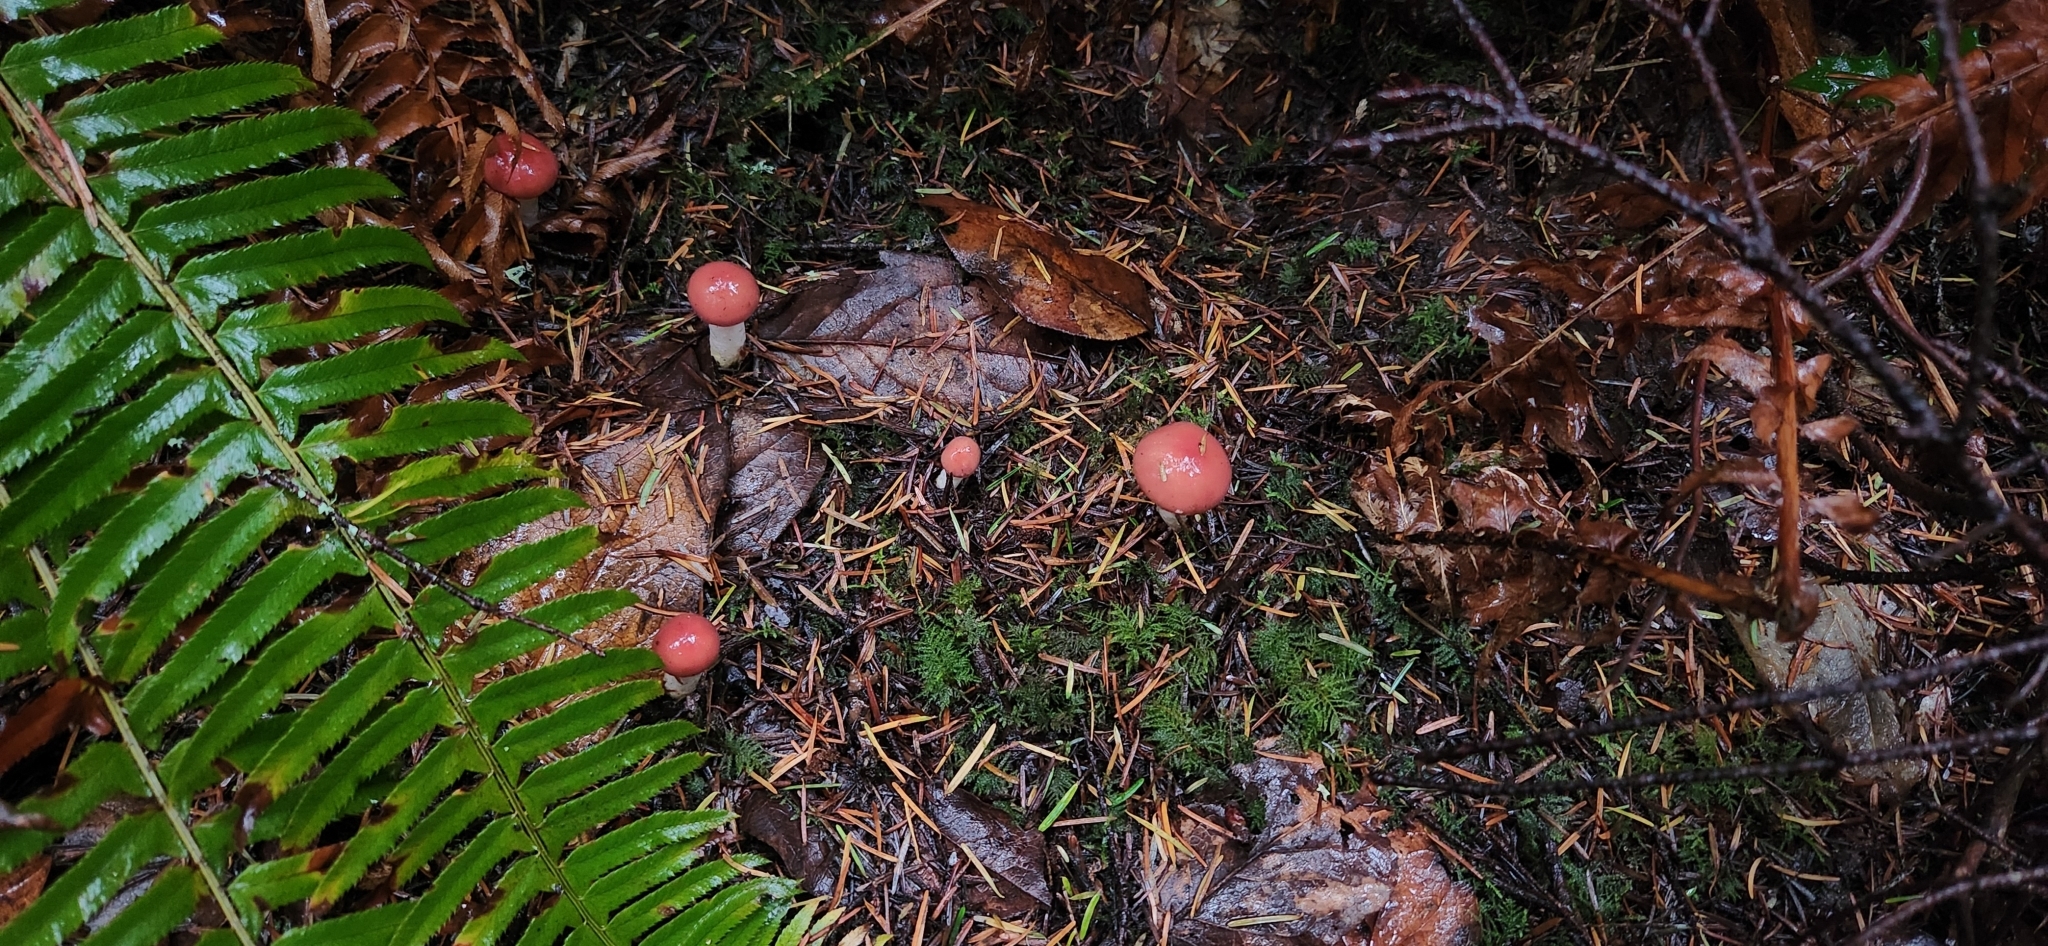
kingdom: Fungi
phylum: Basidiomycota
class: Agaricomycetes
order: Boletales
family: Gomphidiaceae
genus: Gomphidius
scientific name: Gomphidius subroseus
